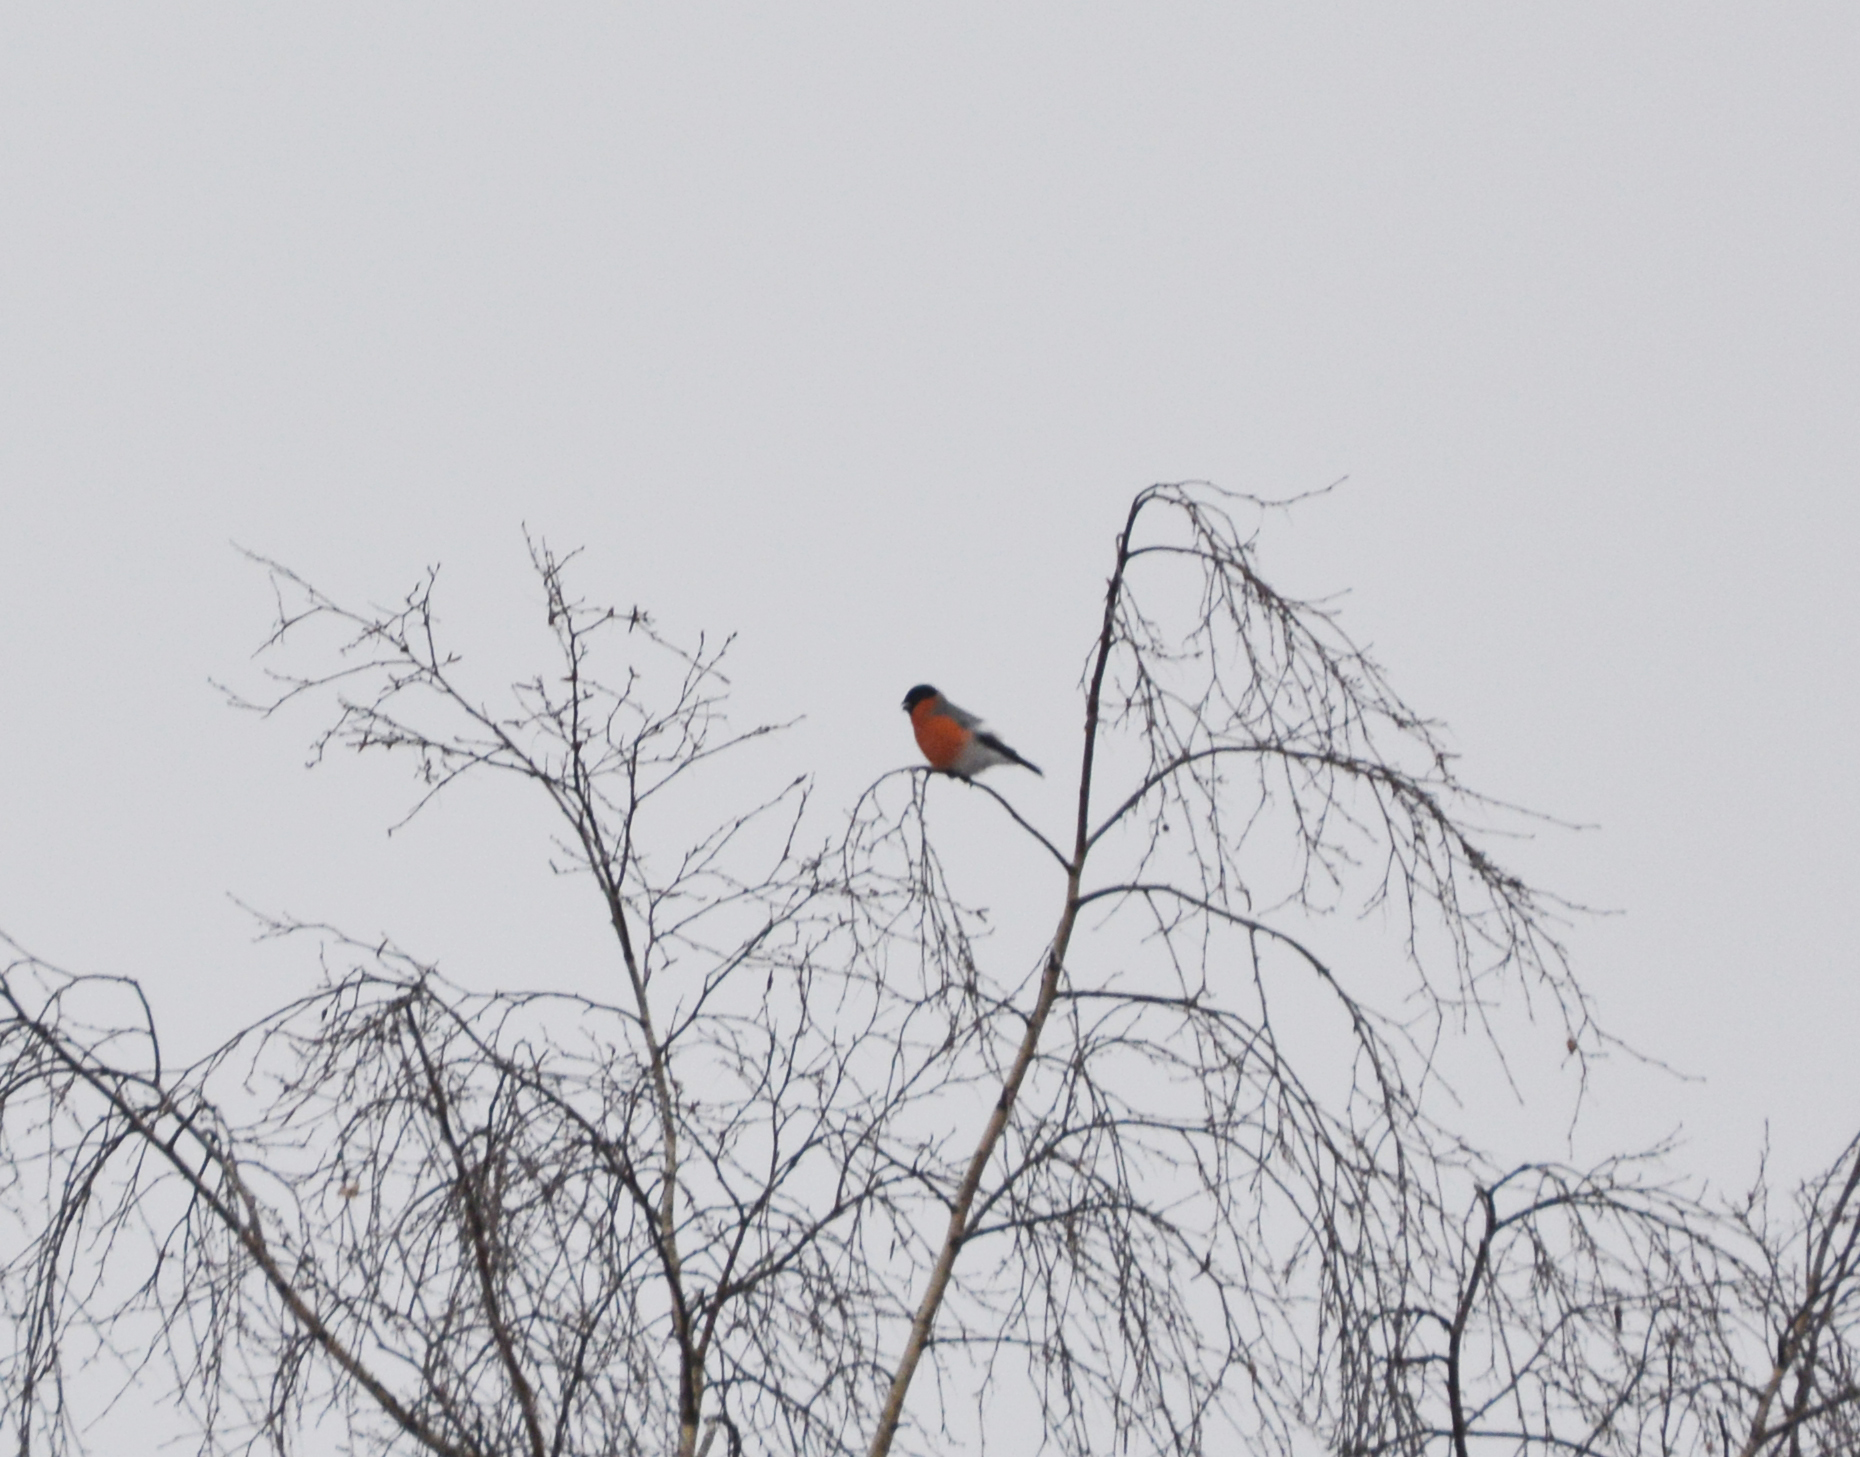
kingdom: Animalia
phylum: Chordata
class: Aves
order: Passeriformes
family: Fringillidae
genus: Pyrrhula
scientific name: Pyrrhula pyrrhula
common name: Eurasian bullfinch
